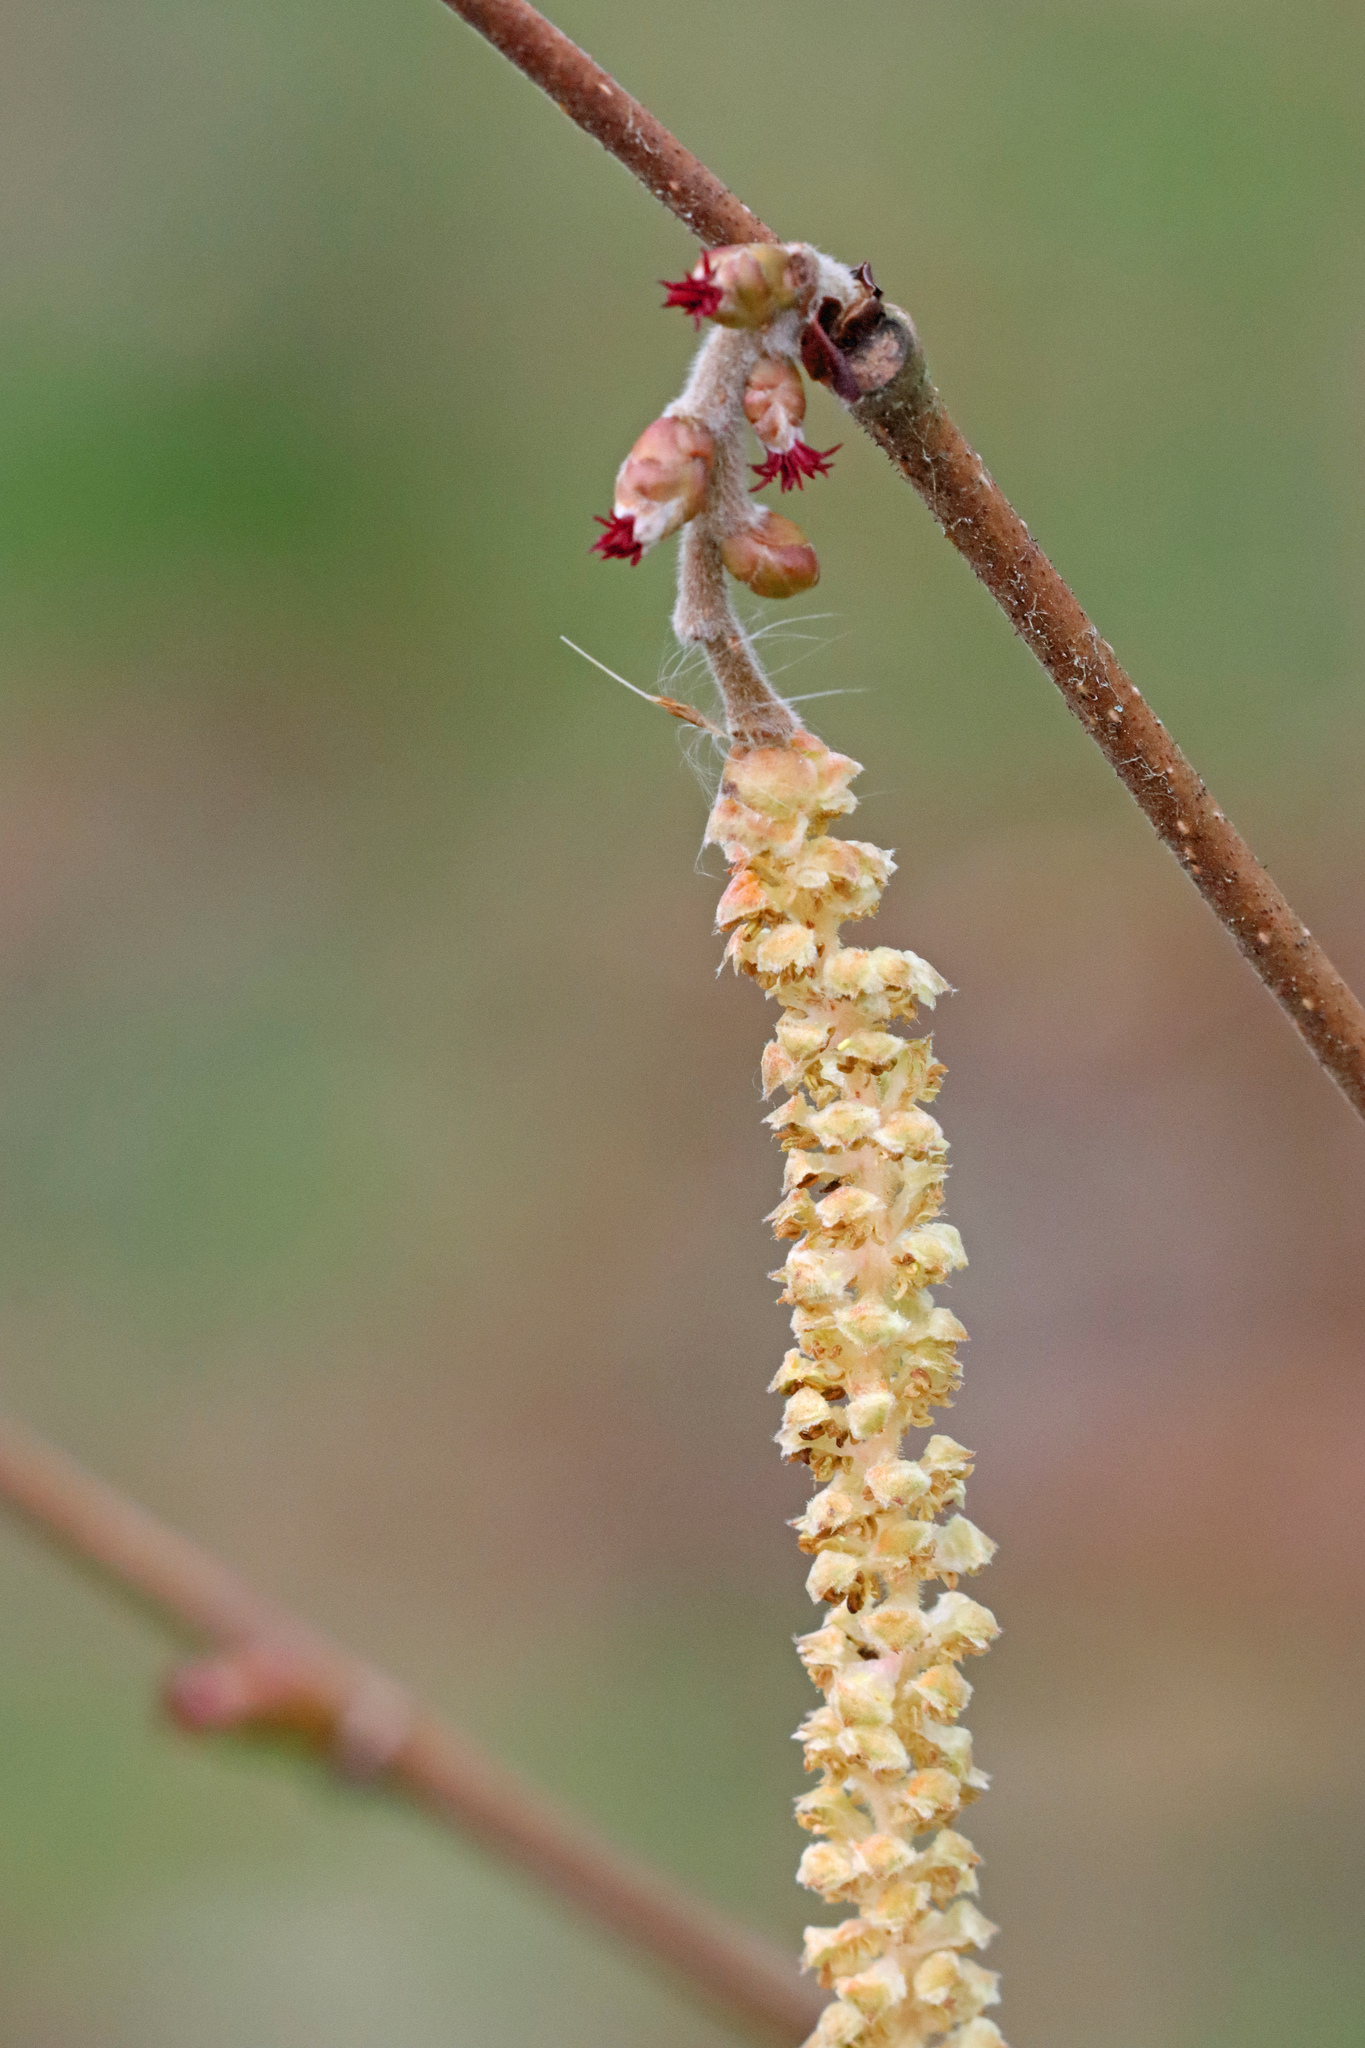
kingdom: Plantae
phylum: Tracheophyta
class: Magnoliopsida
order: Fagales
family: Betulaceae
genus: Corylus
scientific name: Corylus avellana
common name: European hazel
